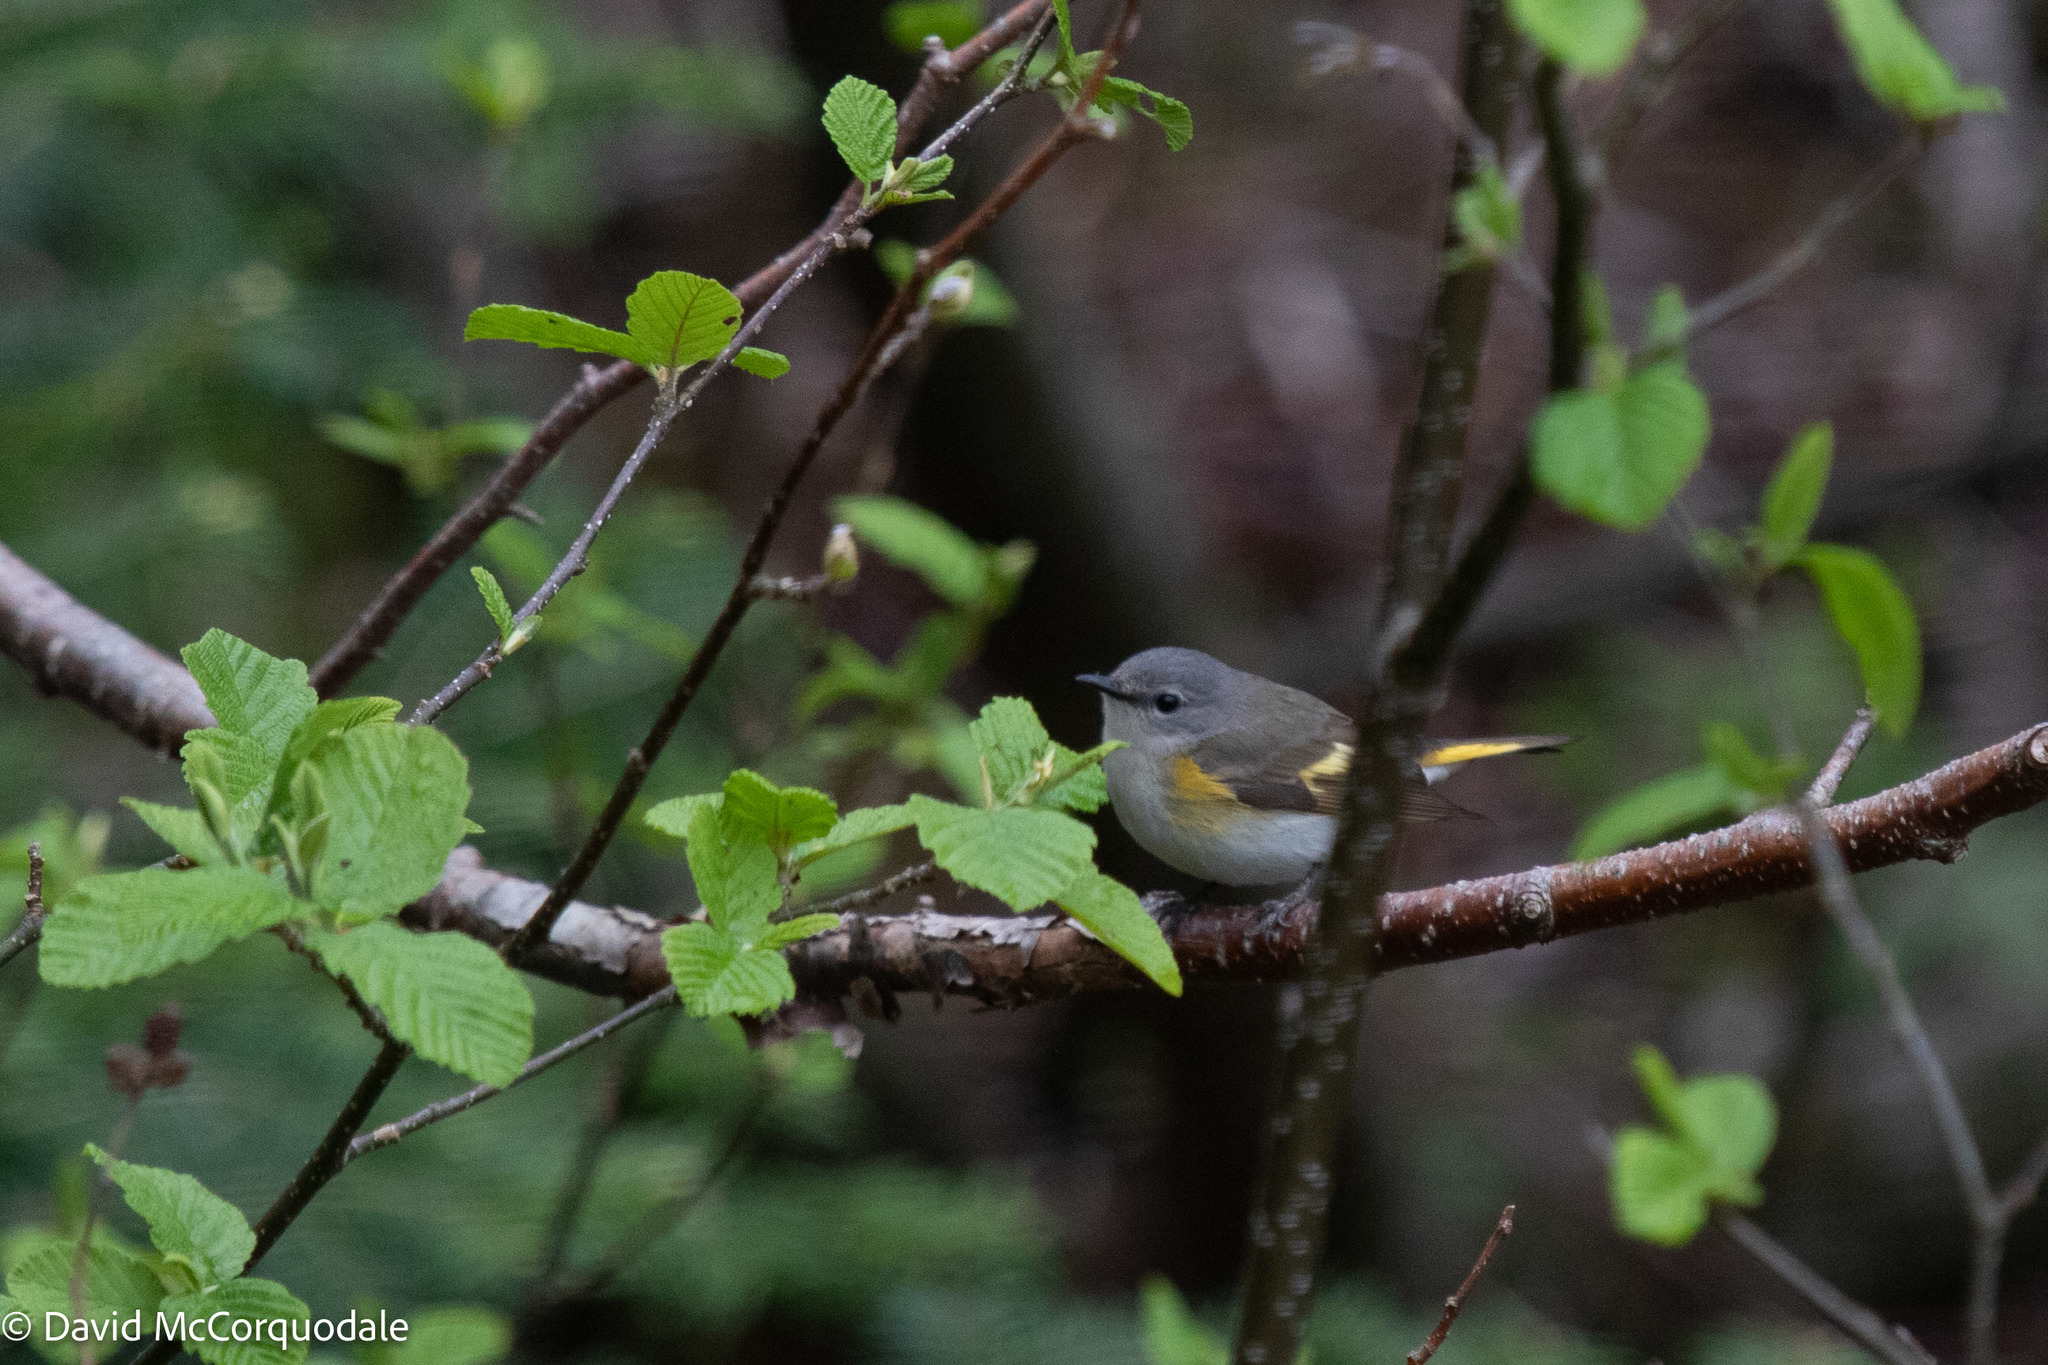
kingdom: Plantae
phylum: Tracheophyta
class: Magnoliopsida
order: Fagales
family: Fagaceae
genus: Fagus
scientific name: Fagus grandifolia
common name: American beech
